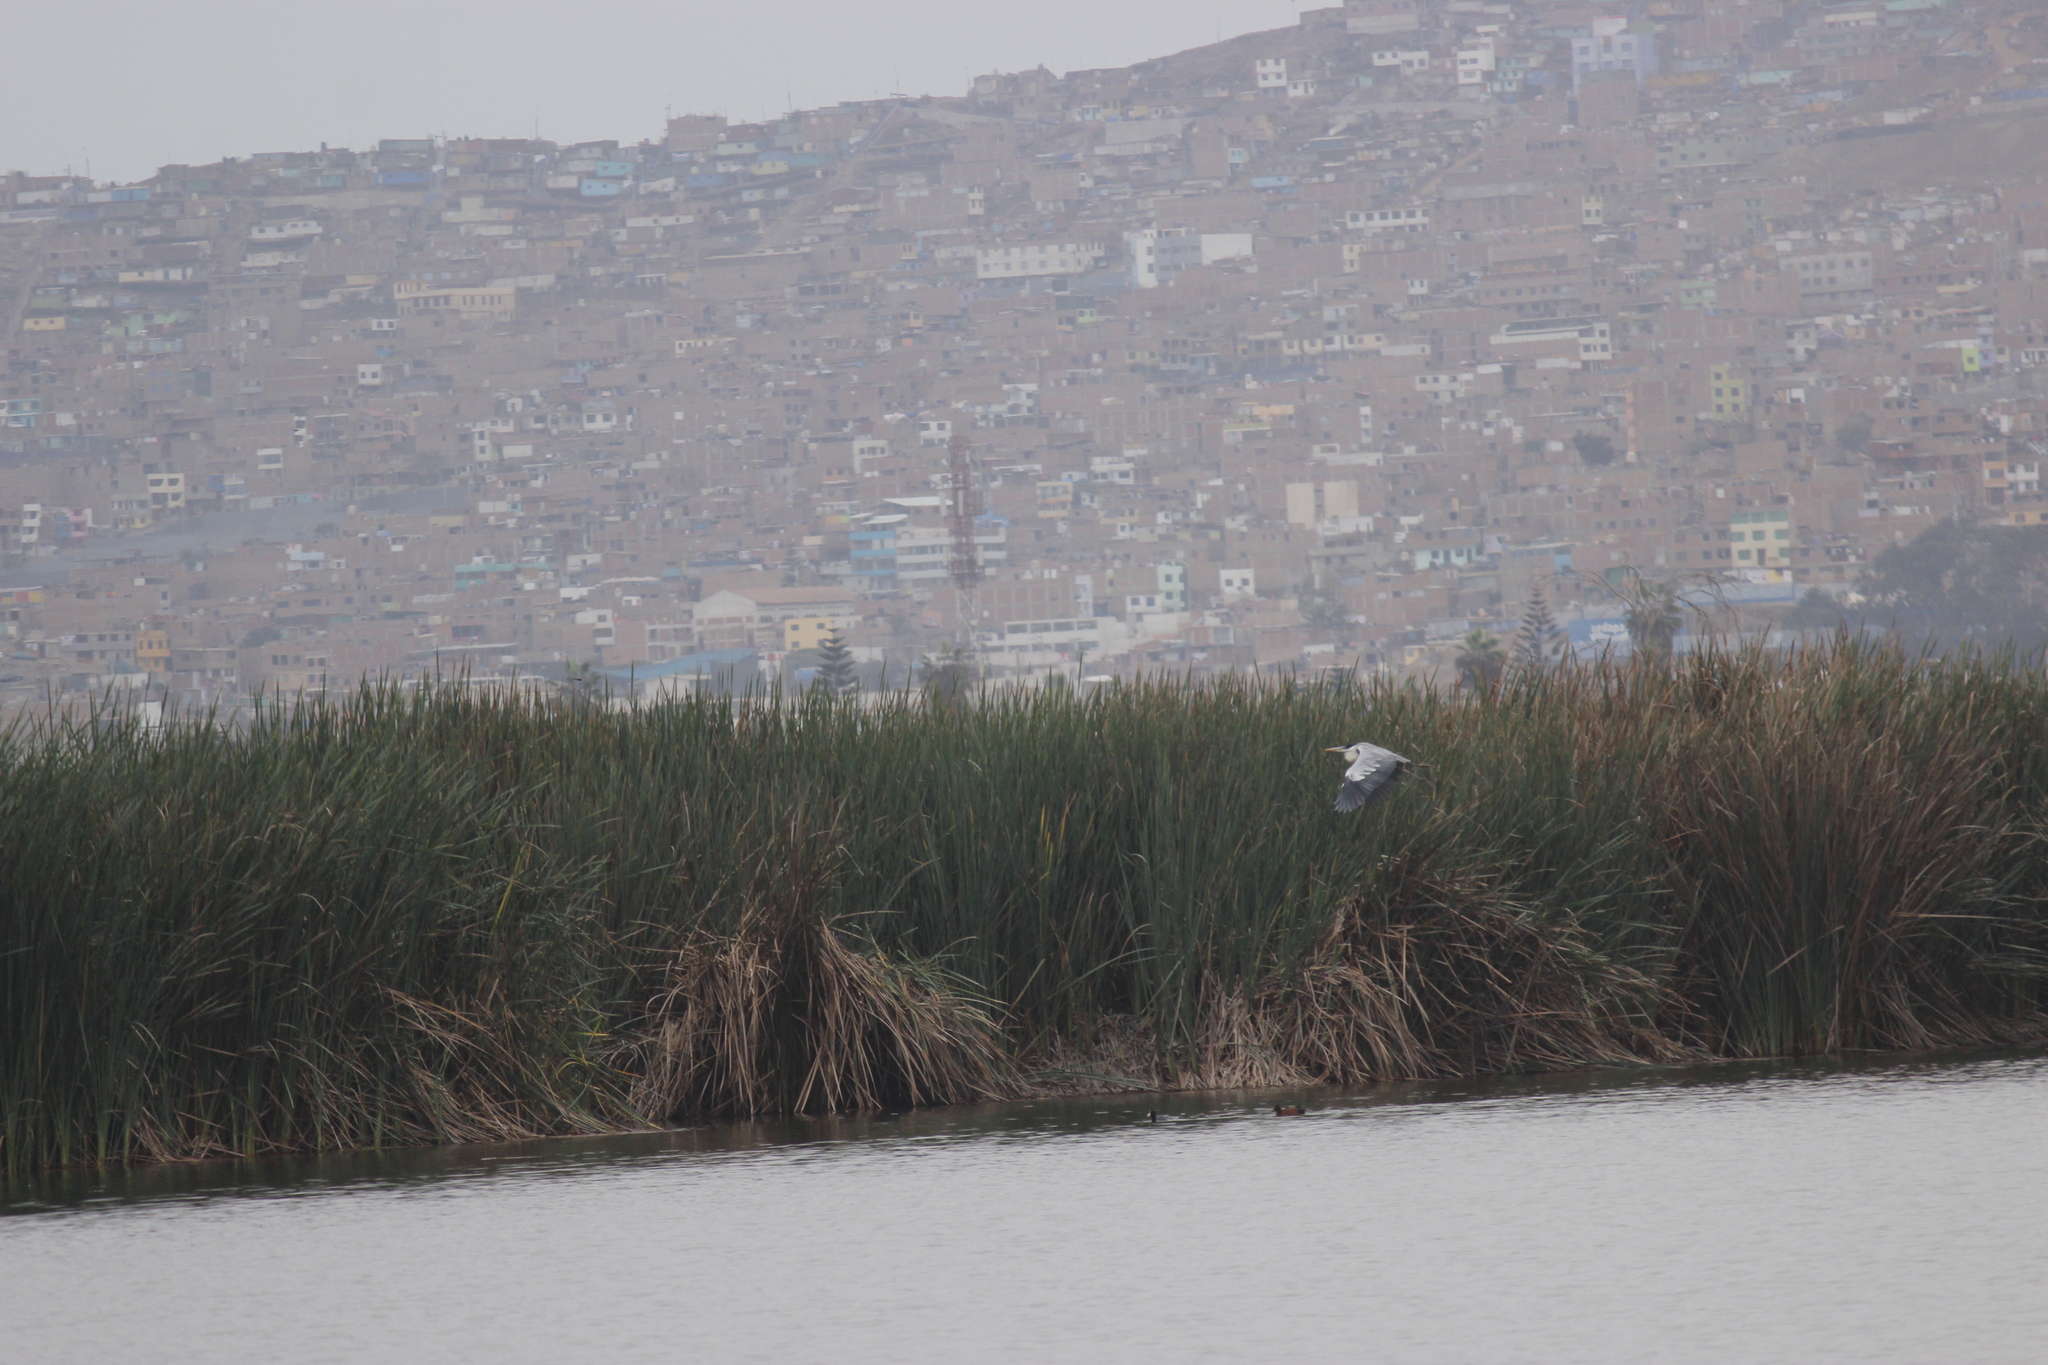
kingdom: Animalia
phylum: Chordata
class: Aves
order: Pelecaniformes
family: Ardeidae
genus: Ardea
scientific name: Ardea cocoi
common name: Cocoi heron
